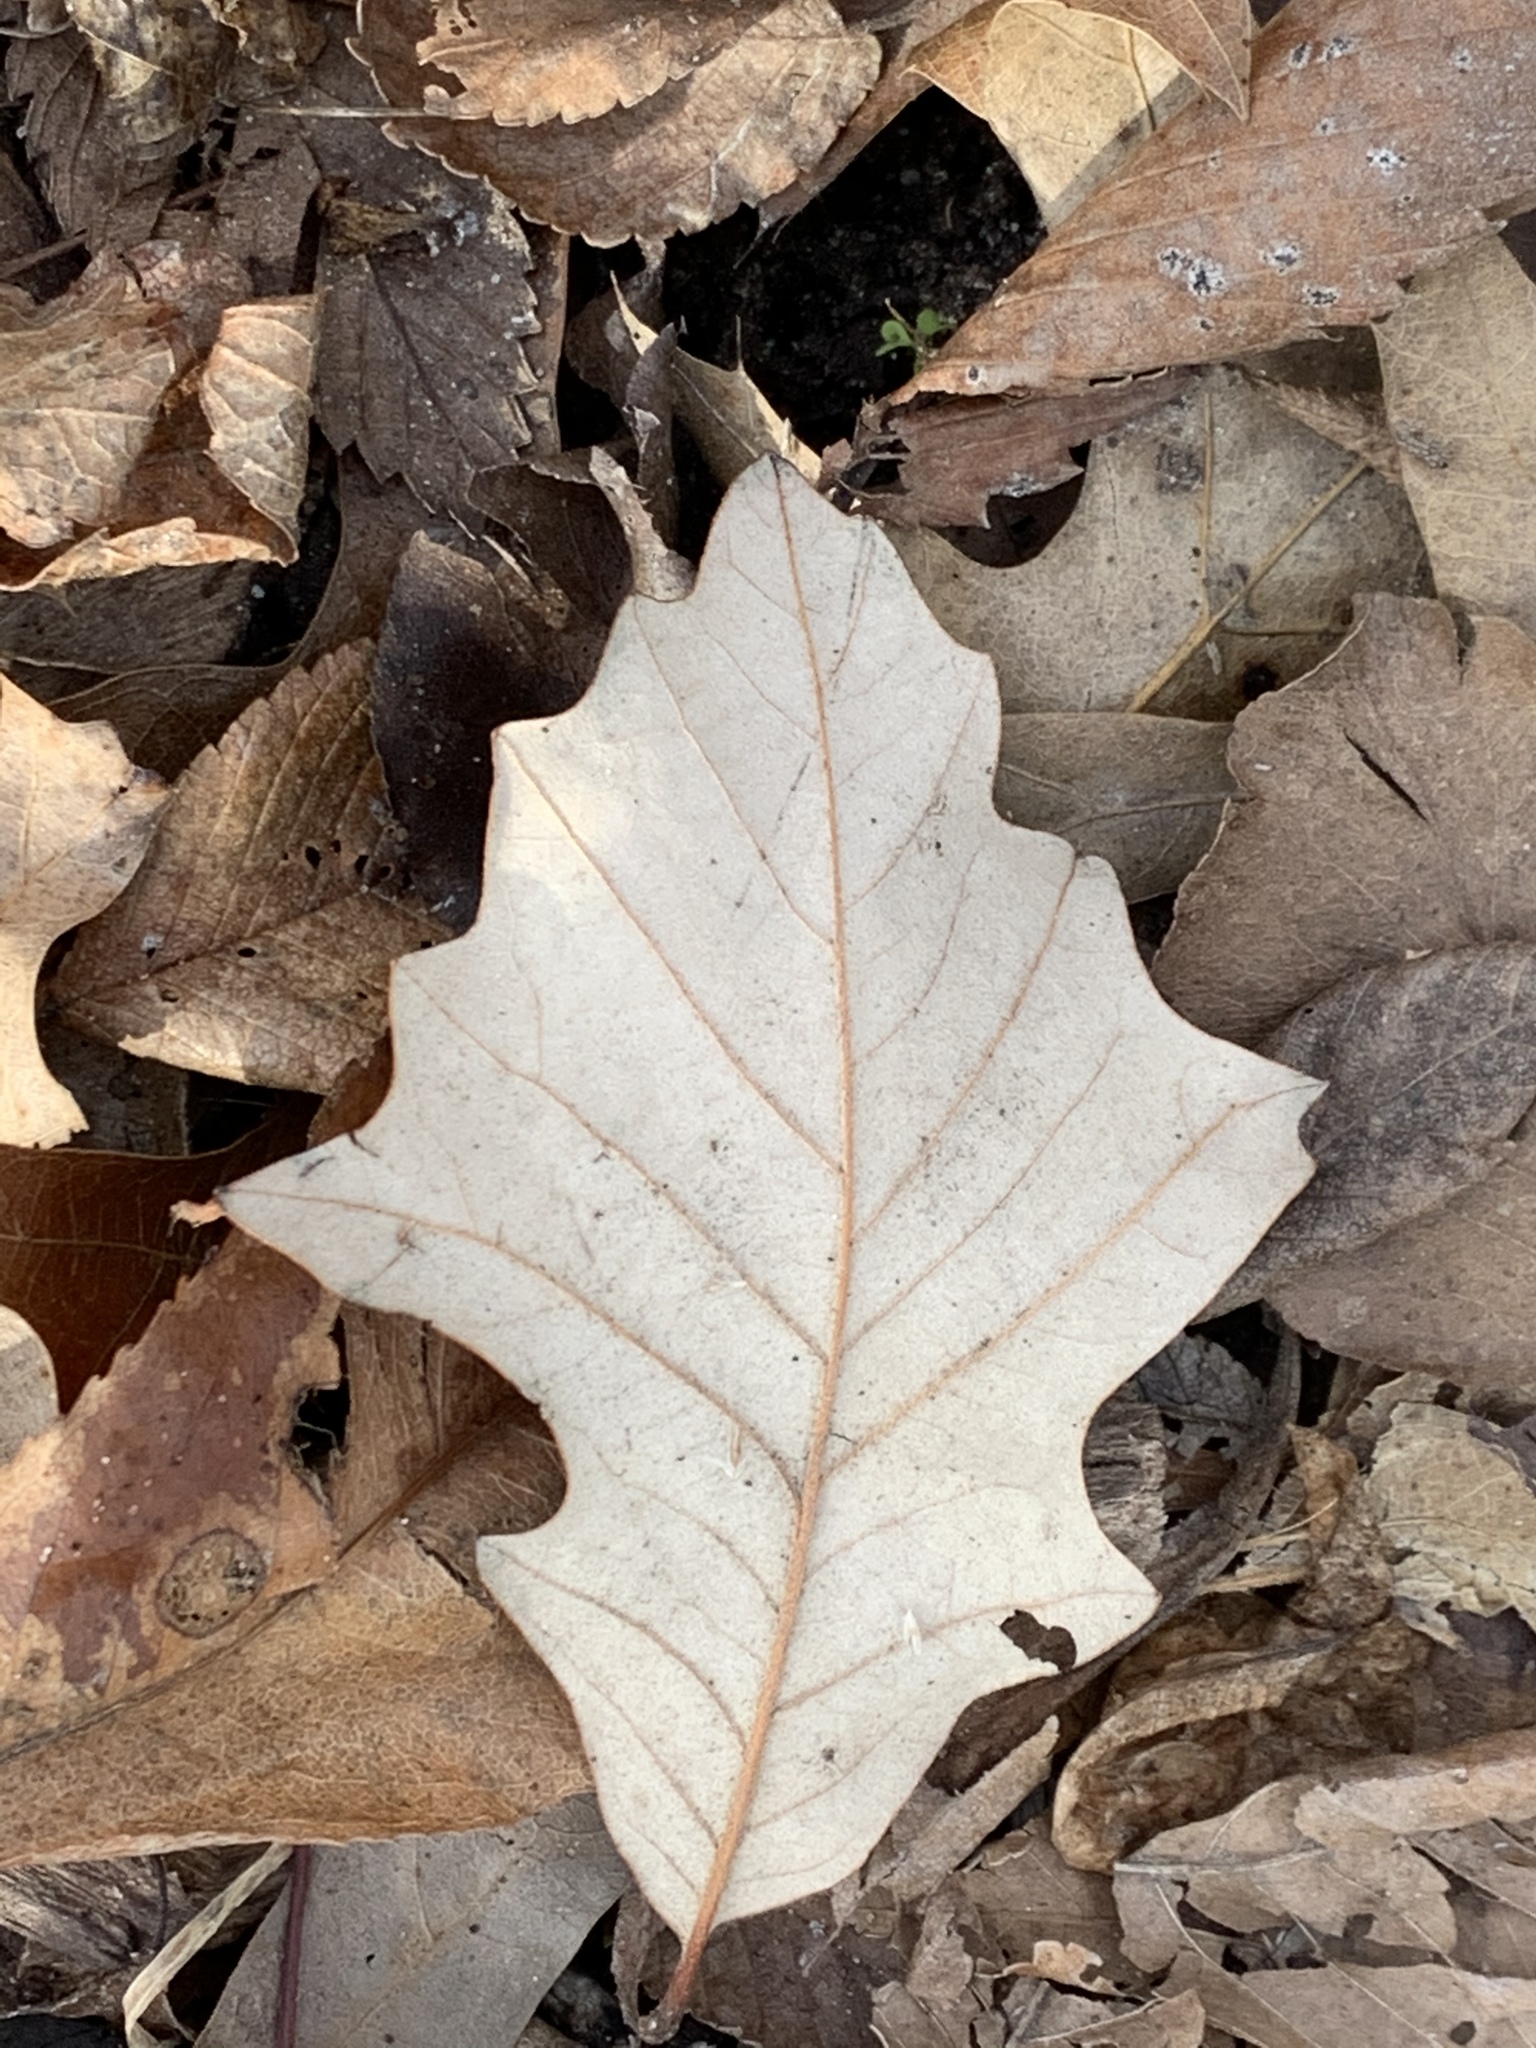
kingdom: Plantae
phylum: Tracheophyta
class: Magnoliopsida
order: Fagales
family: Fagaceae
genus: Quercus
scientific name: Quercus bicolor
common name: Swamp white oak
